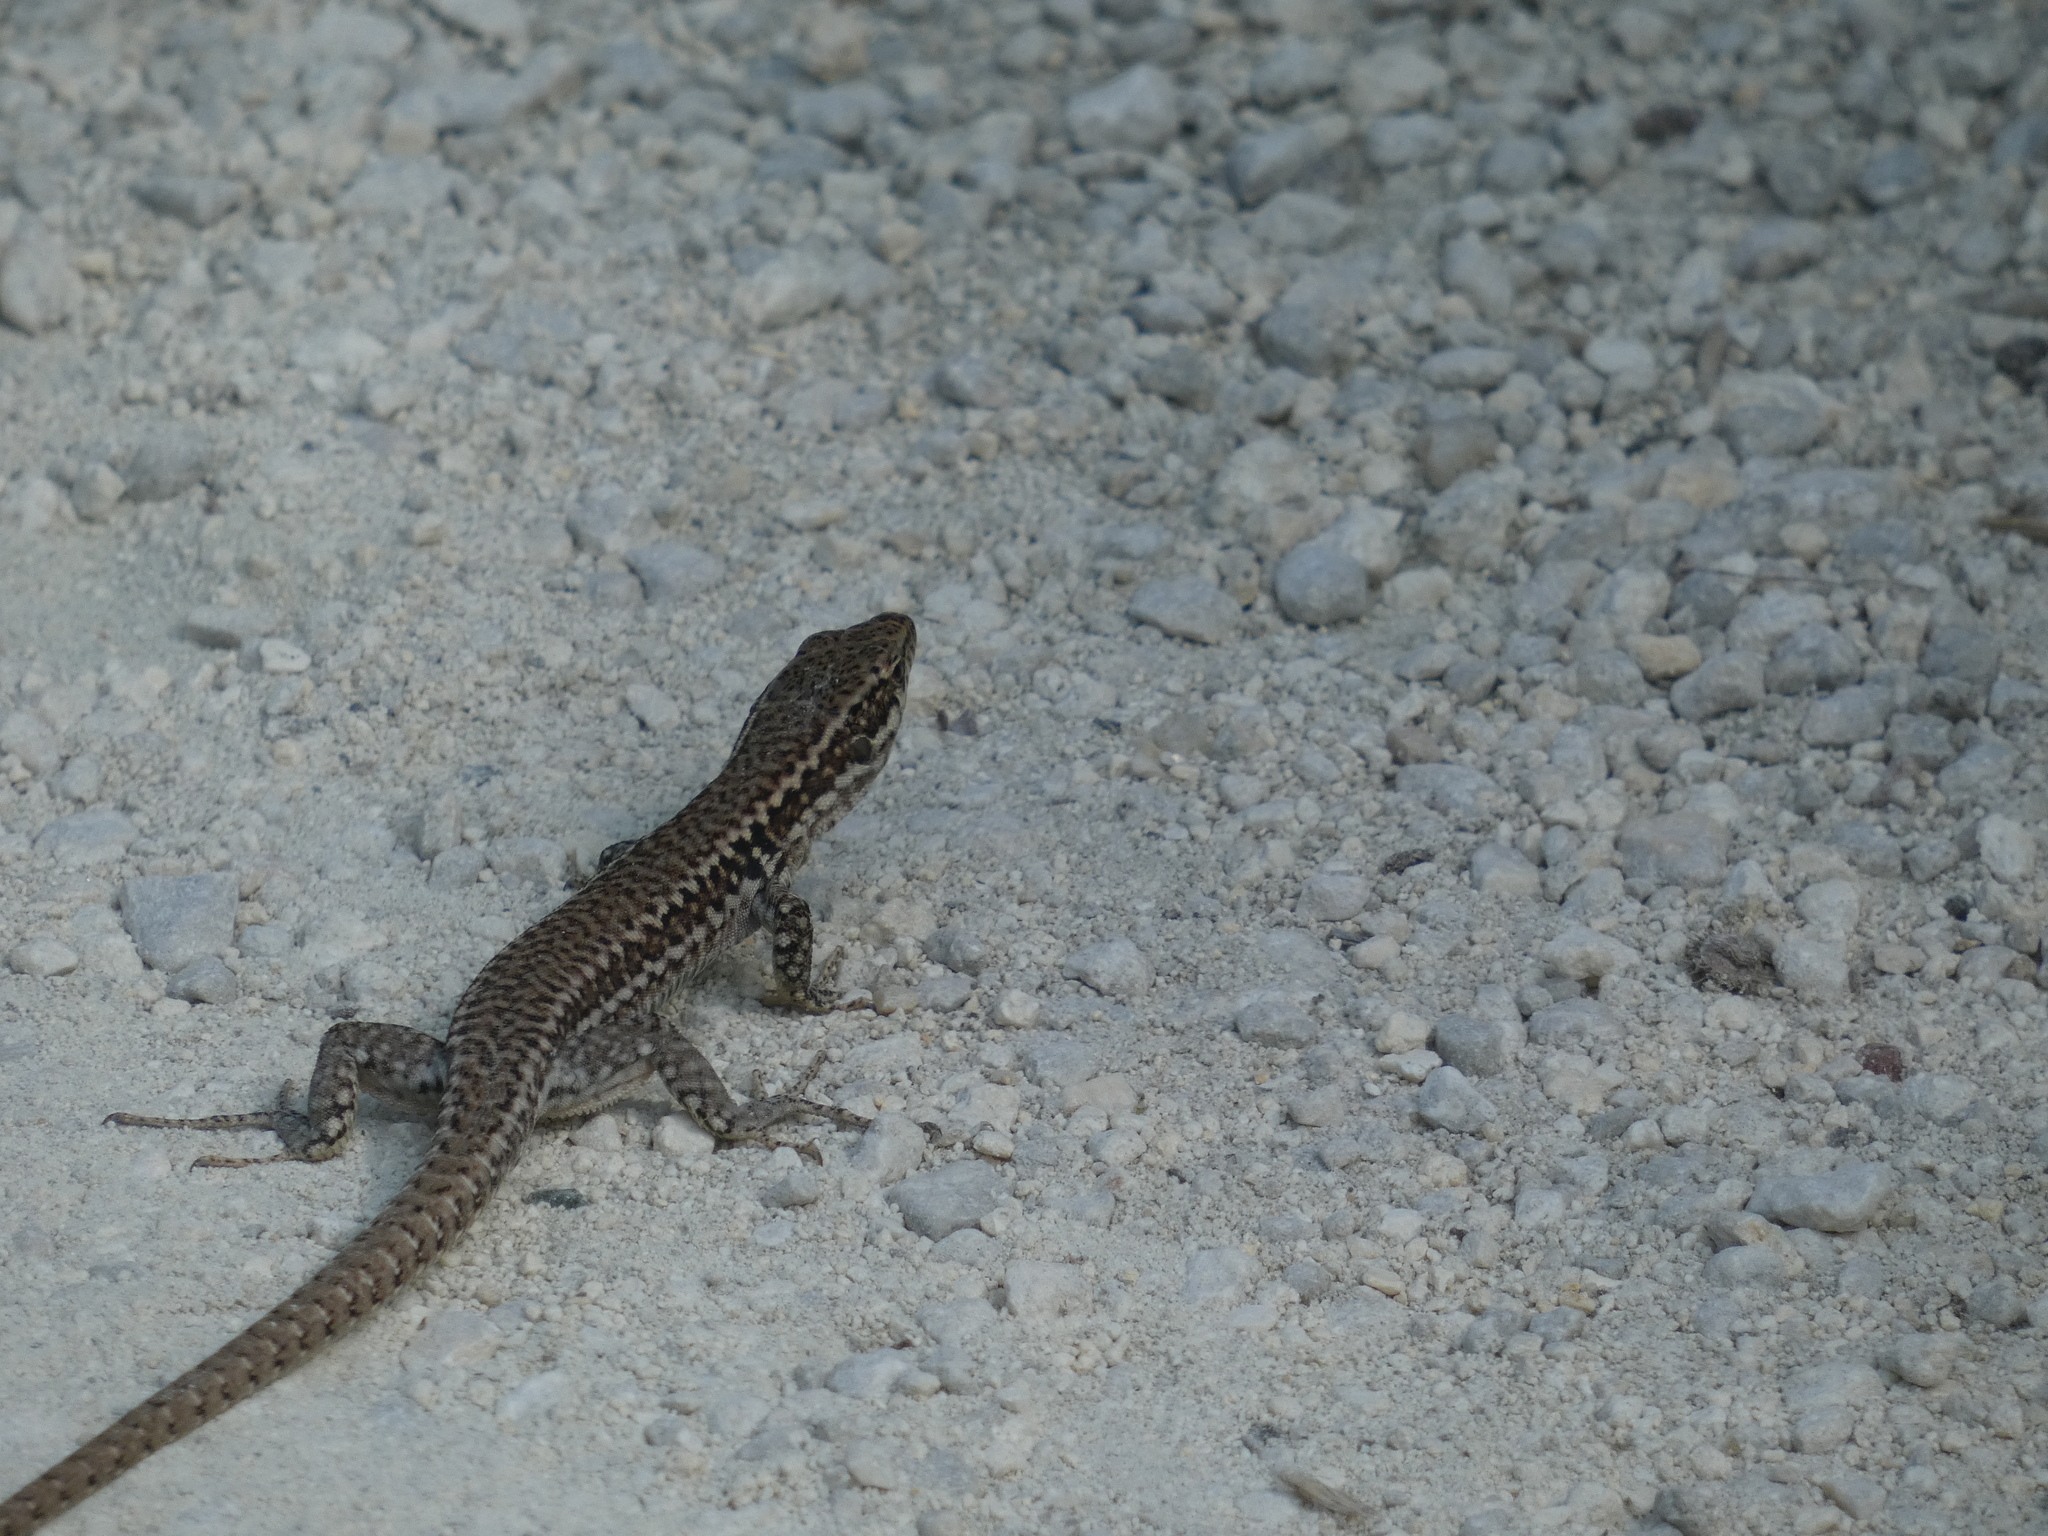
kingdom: Animalia
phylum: Chordata
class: Squamata
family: Lacertidae
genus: Podarcis
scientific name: Podarcis muralis
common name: Common wall lizard
